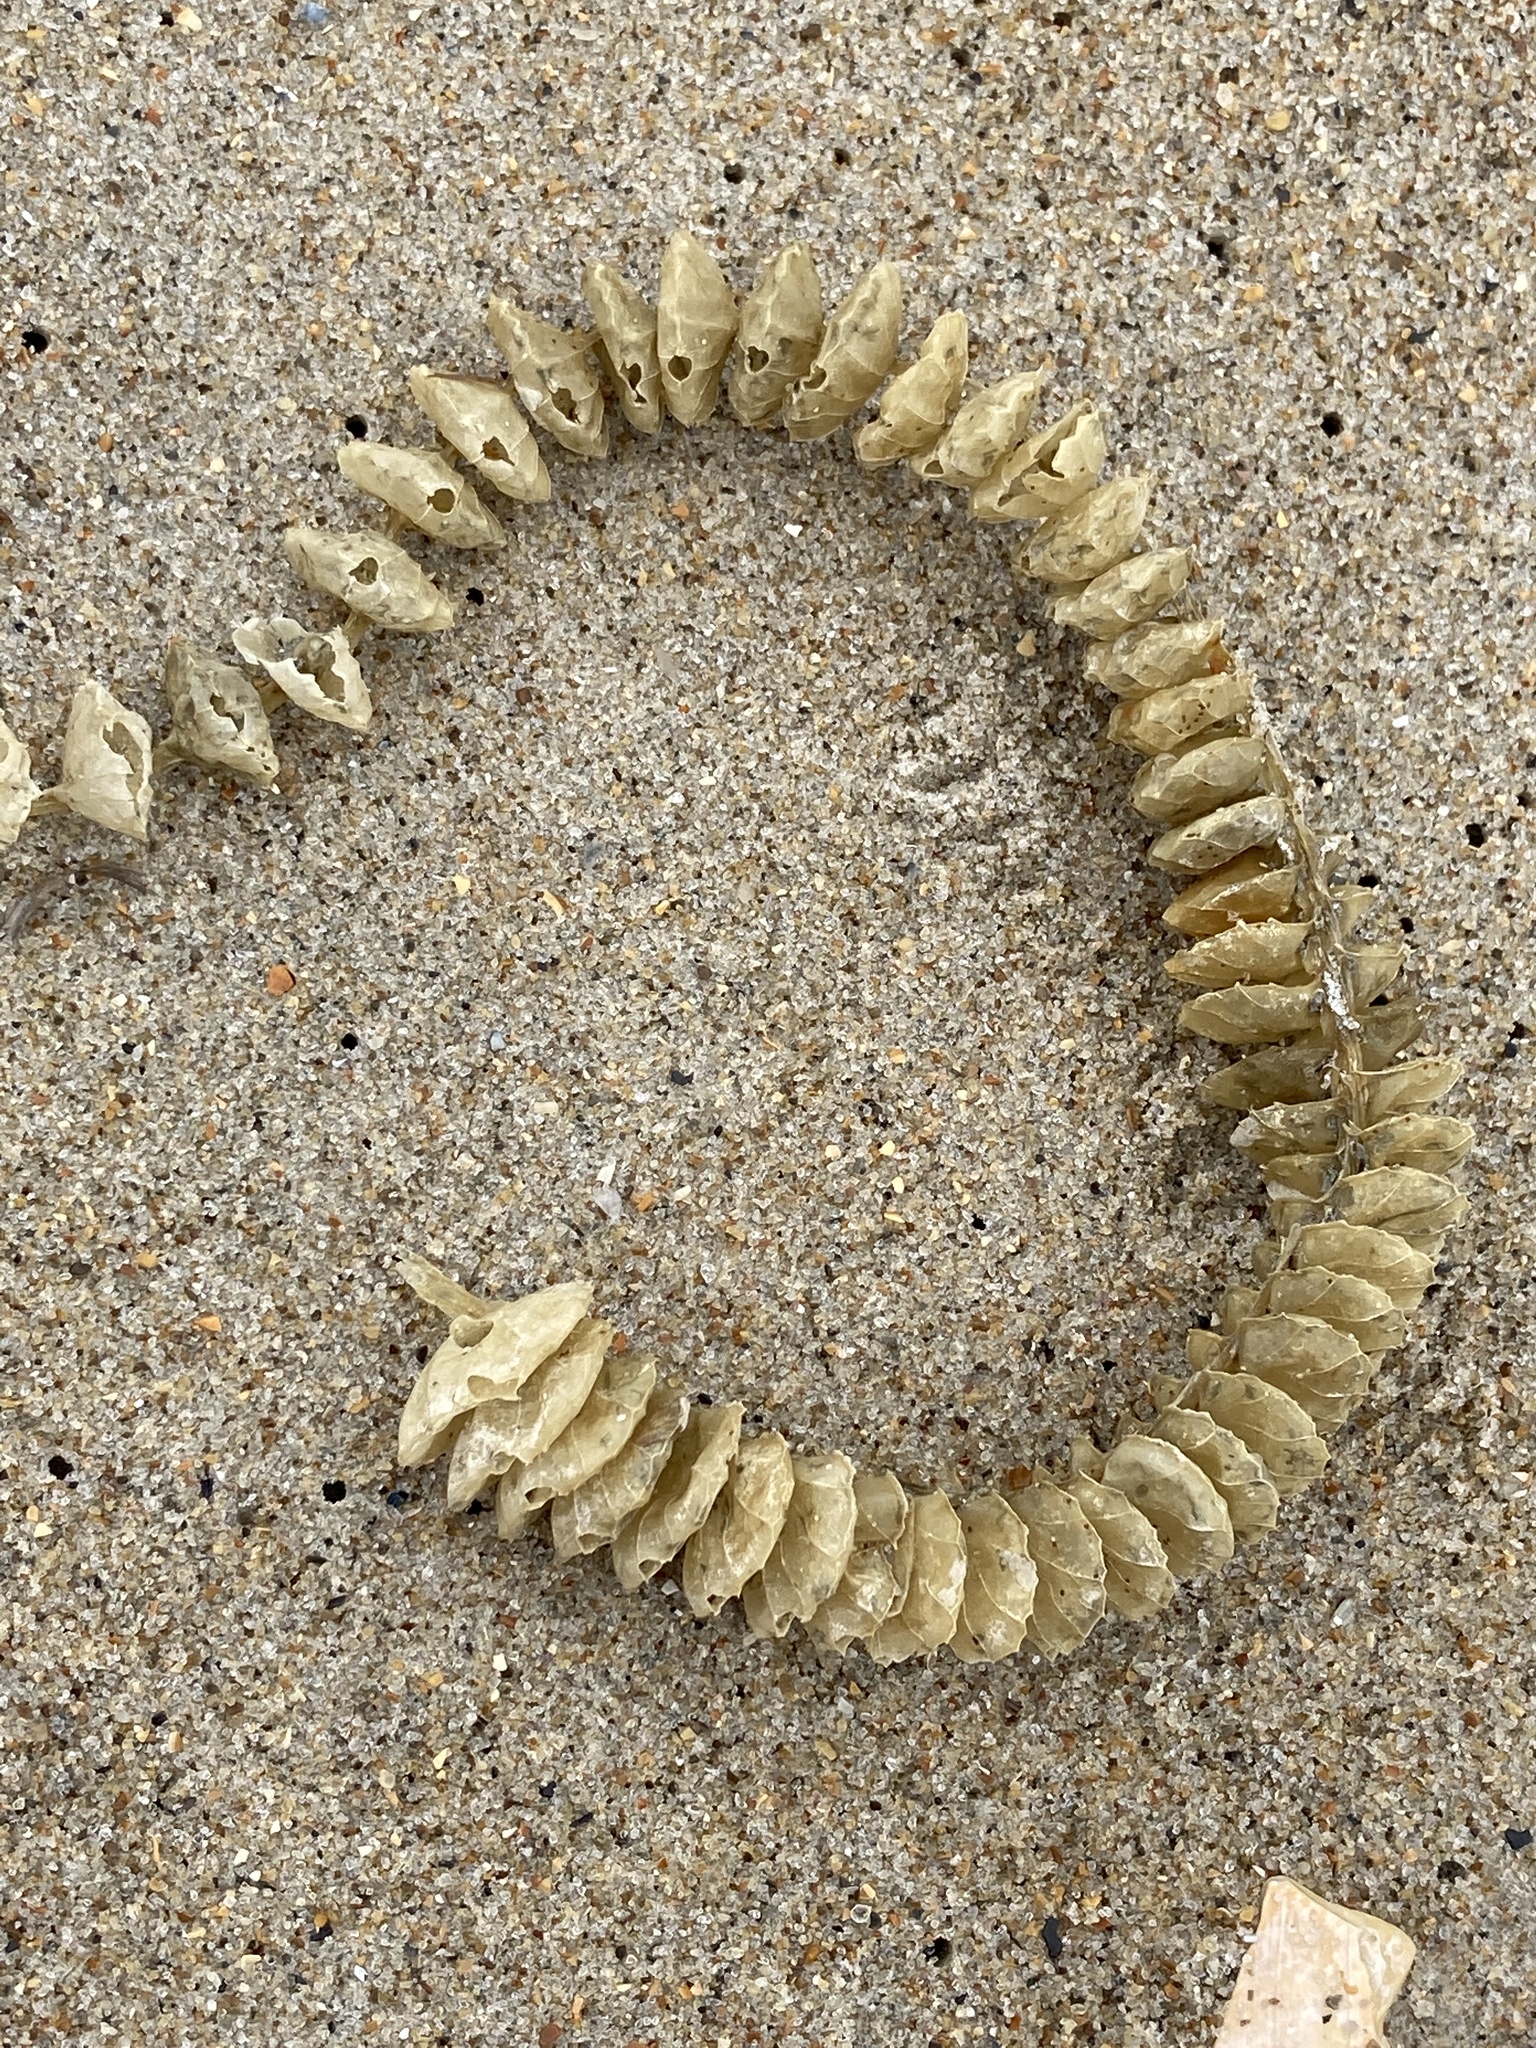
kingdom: Animalia
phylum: Mollusca
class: Gastropoda
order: Neogastropoda
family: Busyconidae
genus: Busycotypus
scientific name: Busycotypus canaliculatus
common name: Channeled whelk
